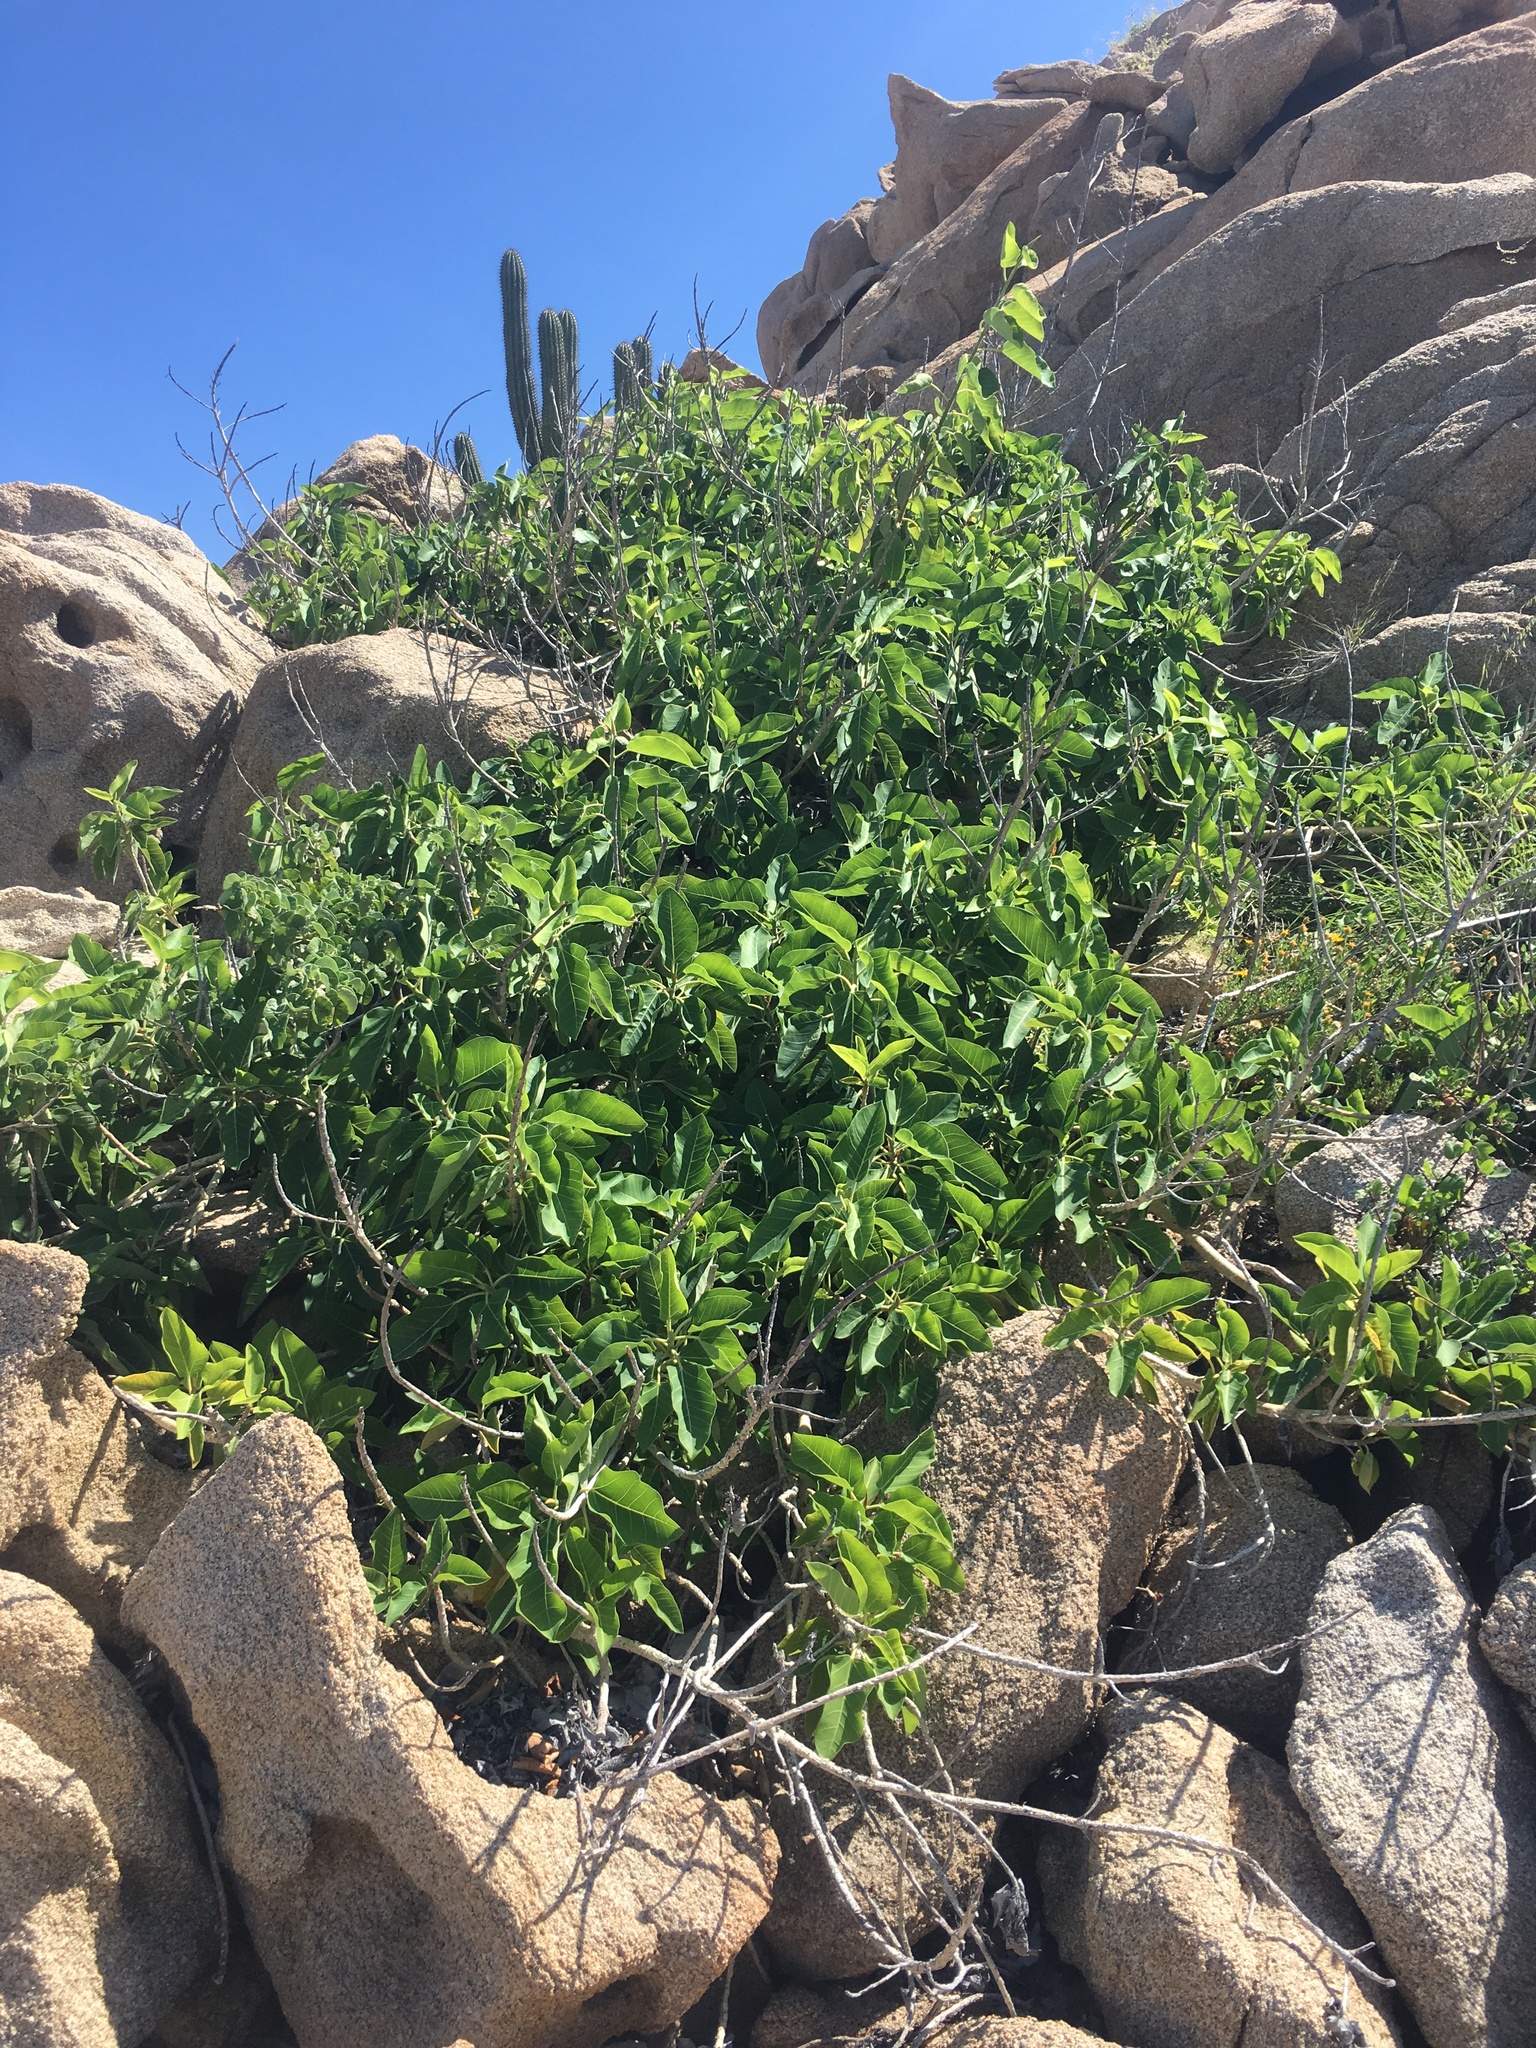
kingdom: Plantae
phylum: Tracheophyta
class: Magnoliopsida
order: Rosales
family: Moraceae
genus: Ficus
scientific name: Ficus petiolaris
